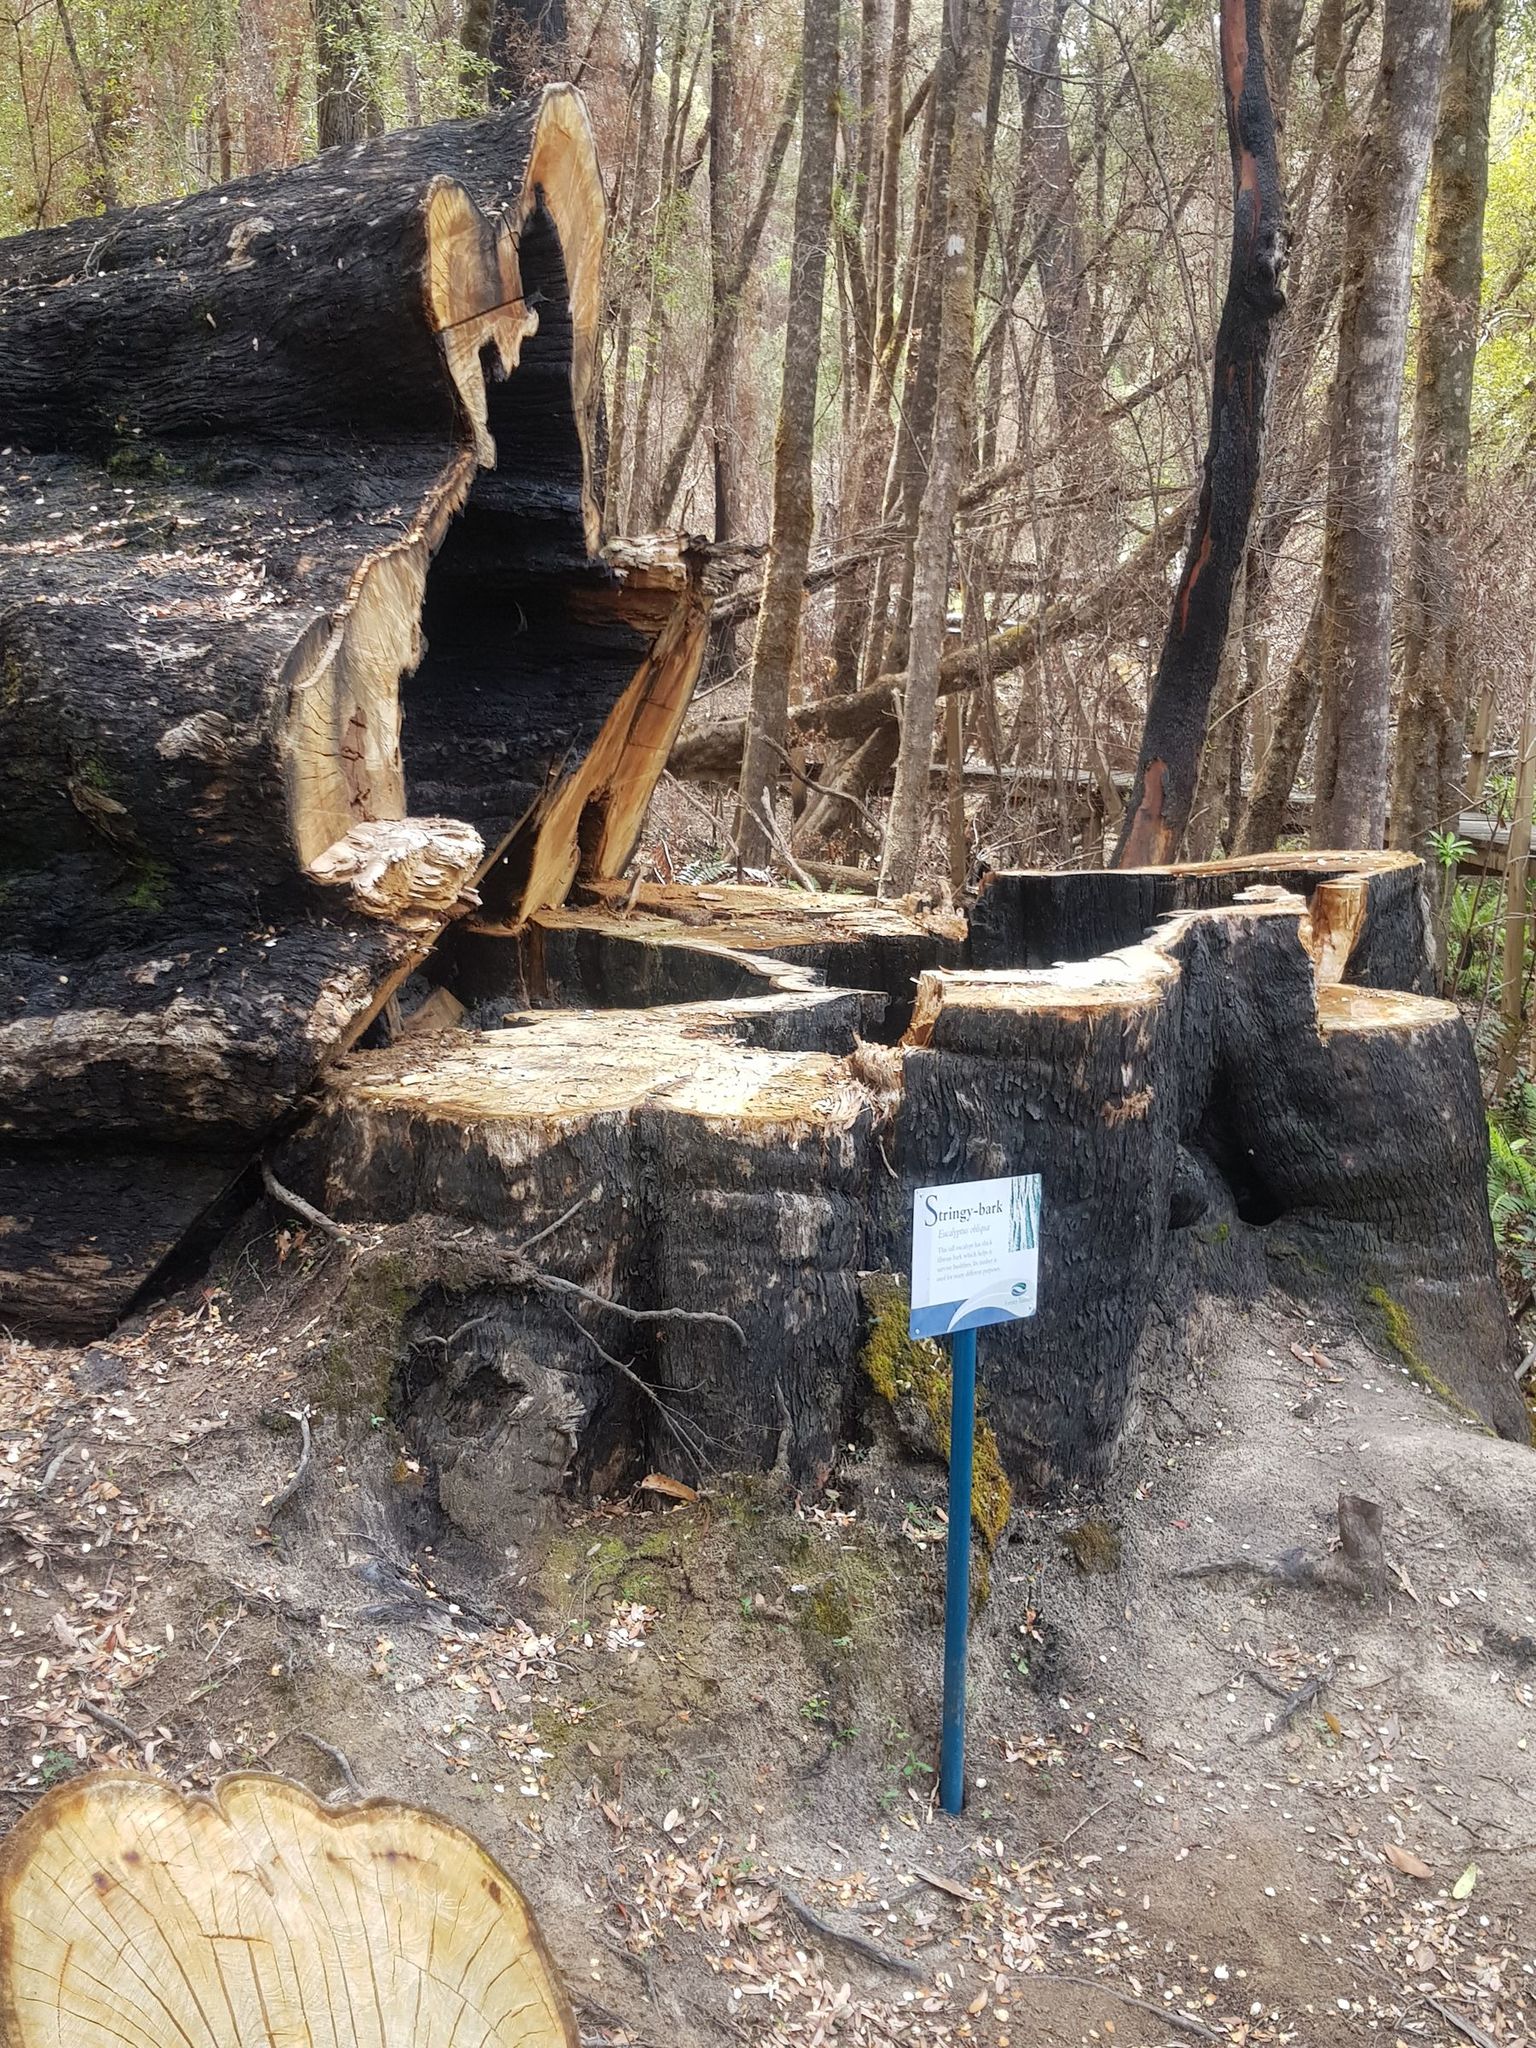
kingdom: Plantae
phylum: Tracheophyta
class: Magnoliopsida
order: Myrtales
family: Myrtaceae
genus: Eucalyptus
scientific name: Eucalyptus obliqua
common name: Messmate stringybark
